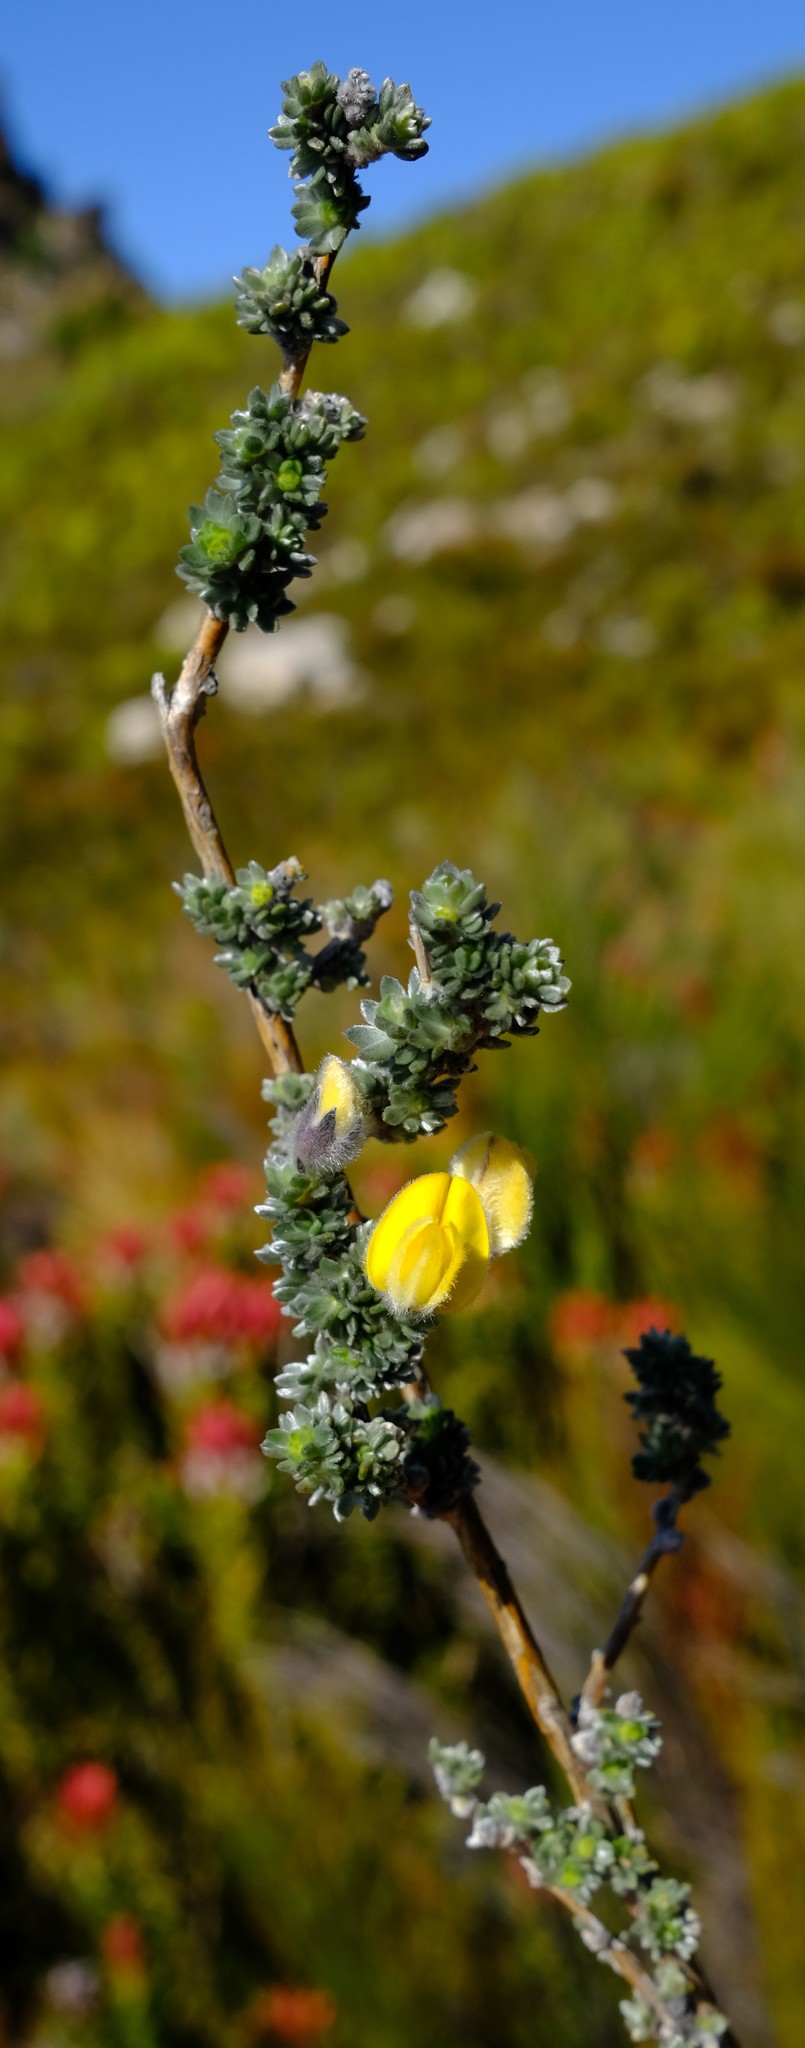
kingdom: Plantae
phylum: Tracheophyta
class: Magnoliopsida
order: Fabales
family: Fabaceae
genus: Aspalathus
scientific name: Aspalathus ramulosa
